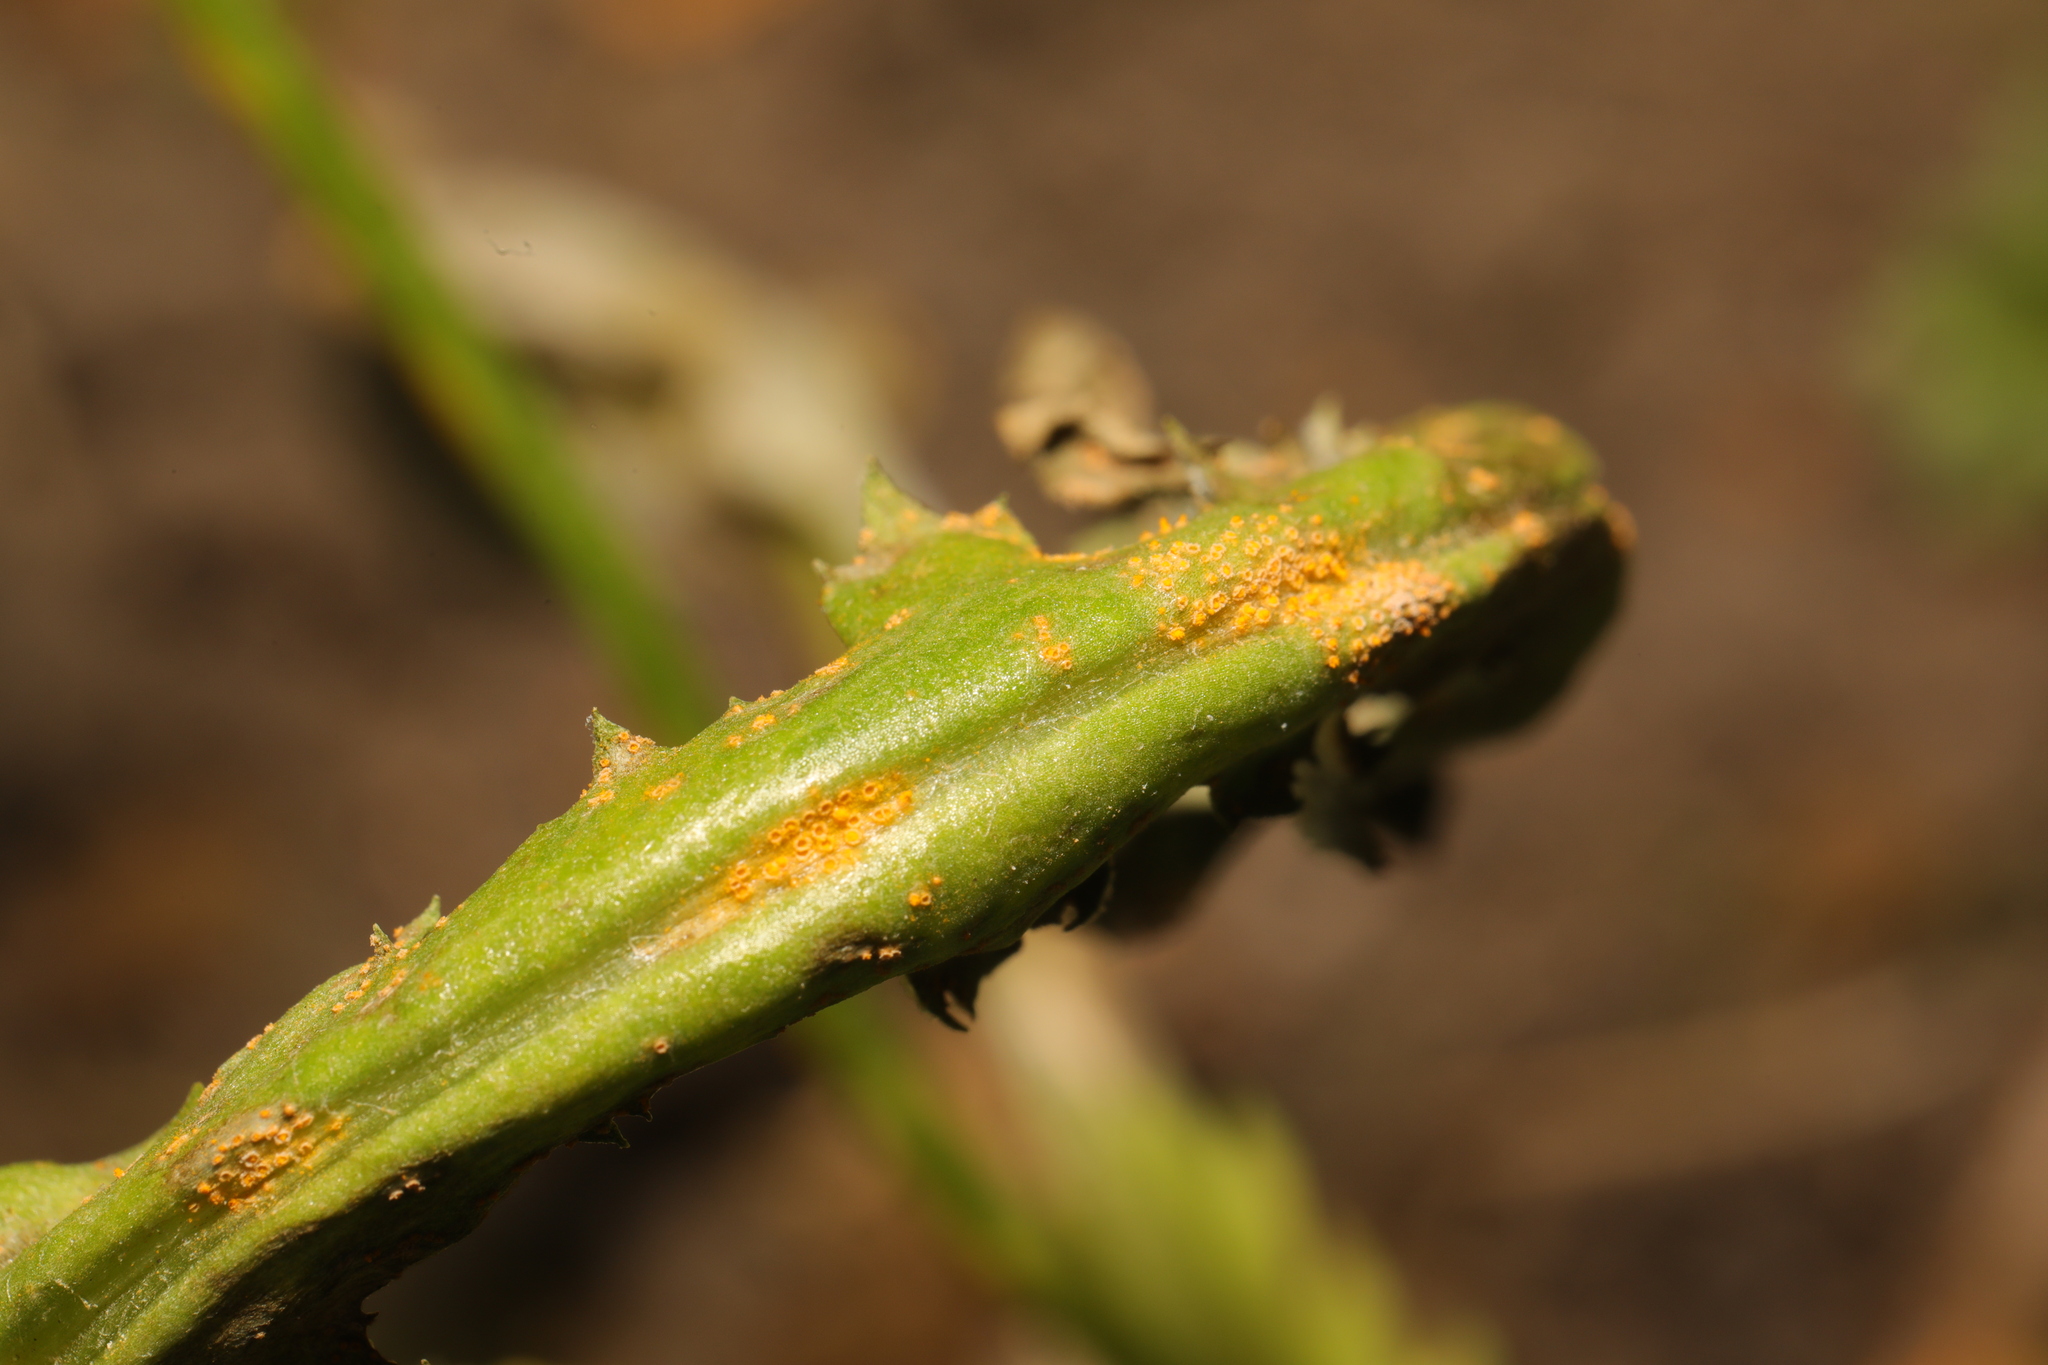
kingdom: Fungi
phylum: Basidiomycota
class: Pucciniomycetes
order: Pucciniales
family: Pucciniaceae
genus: Puccinia
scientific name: Puccinia lagenophorae
